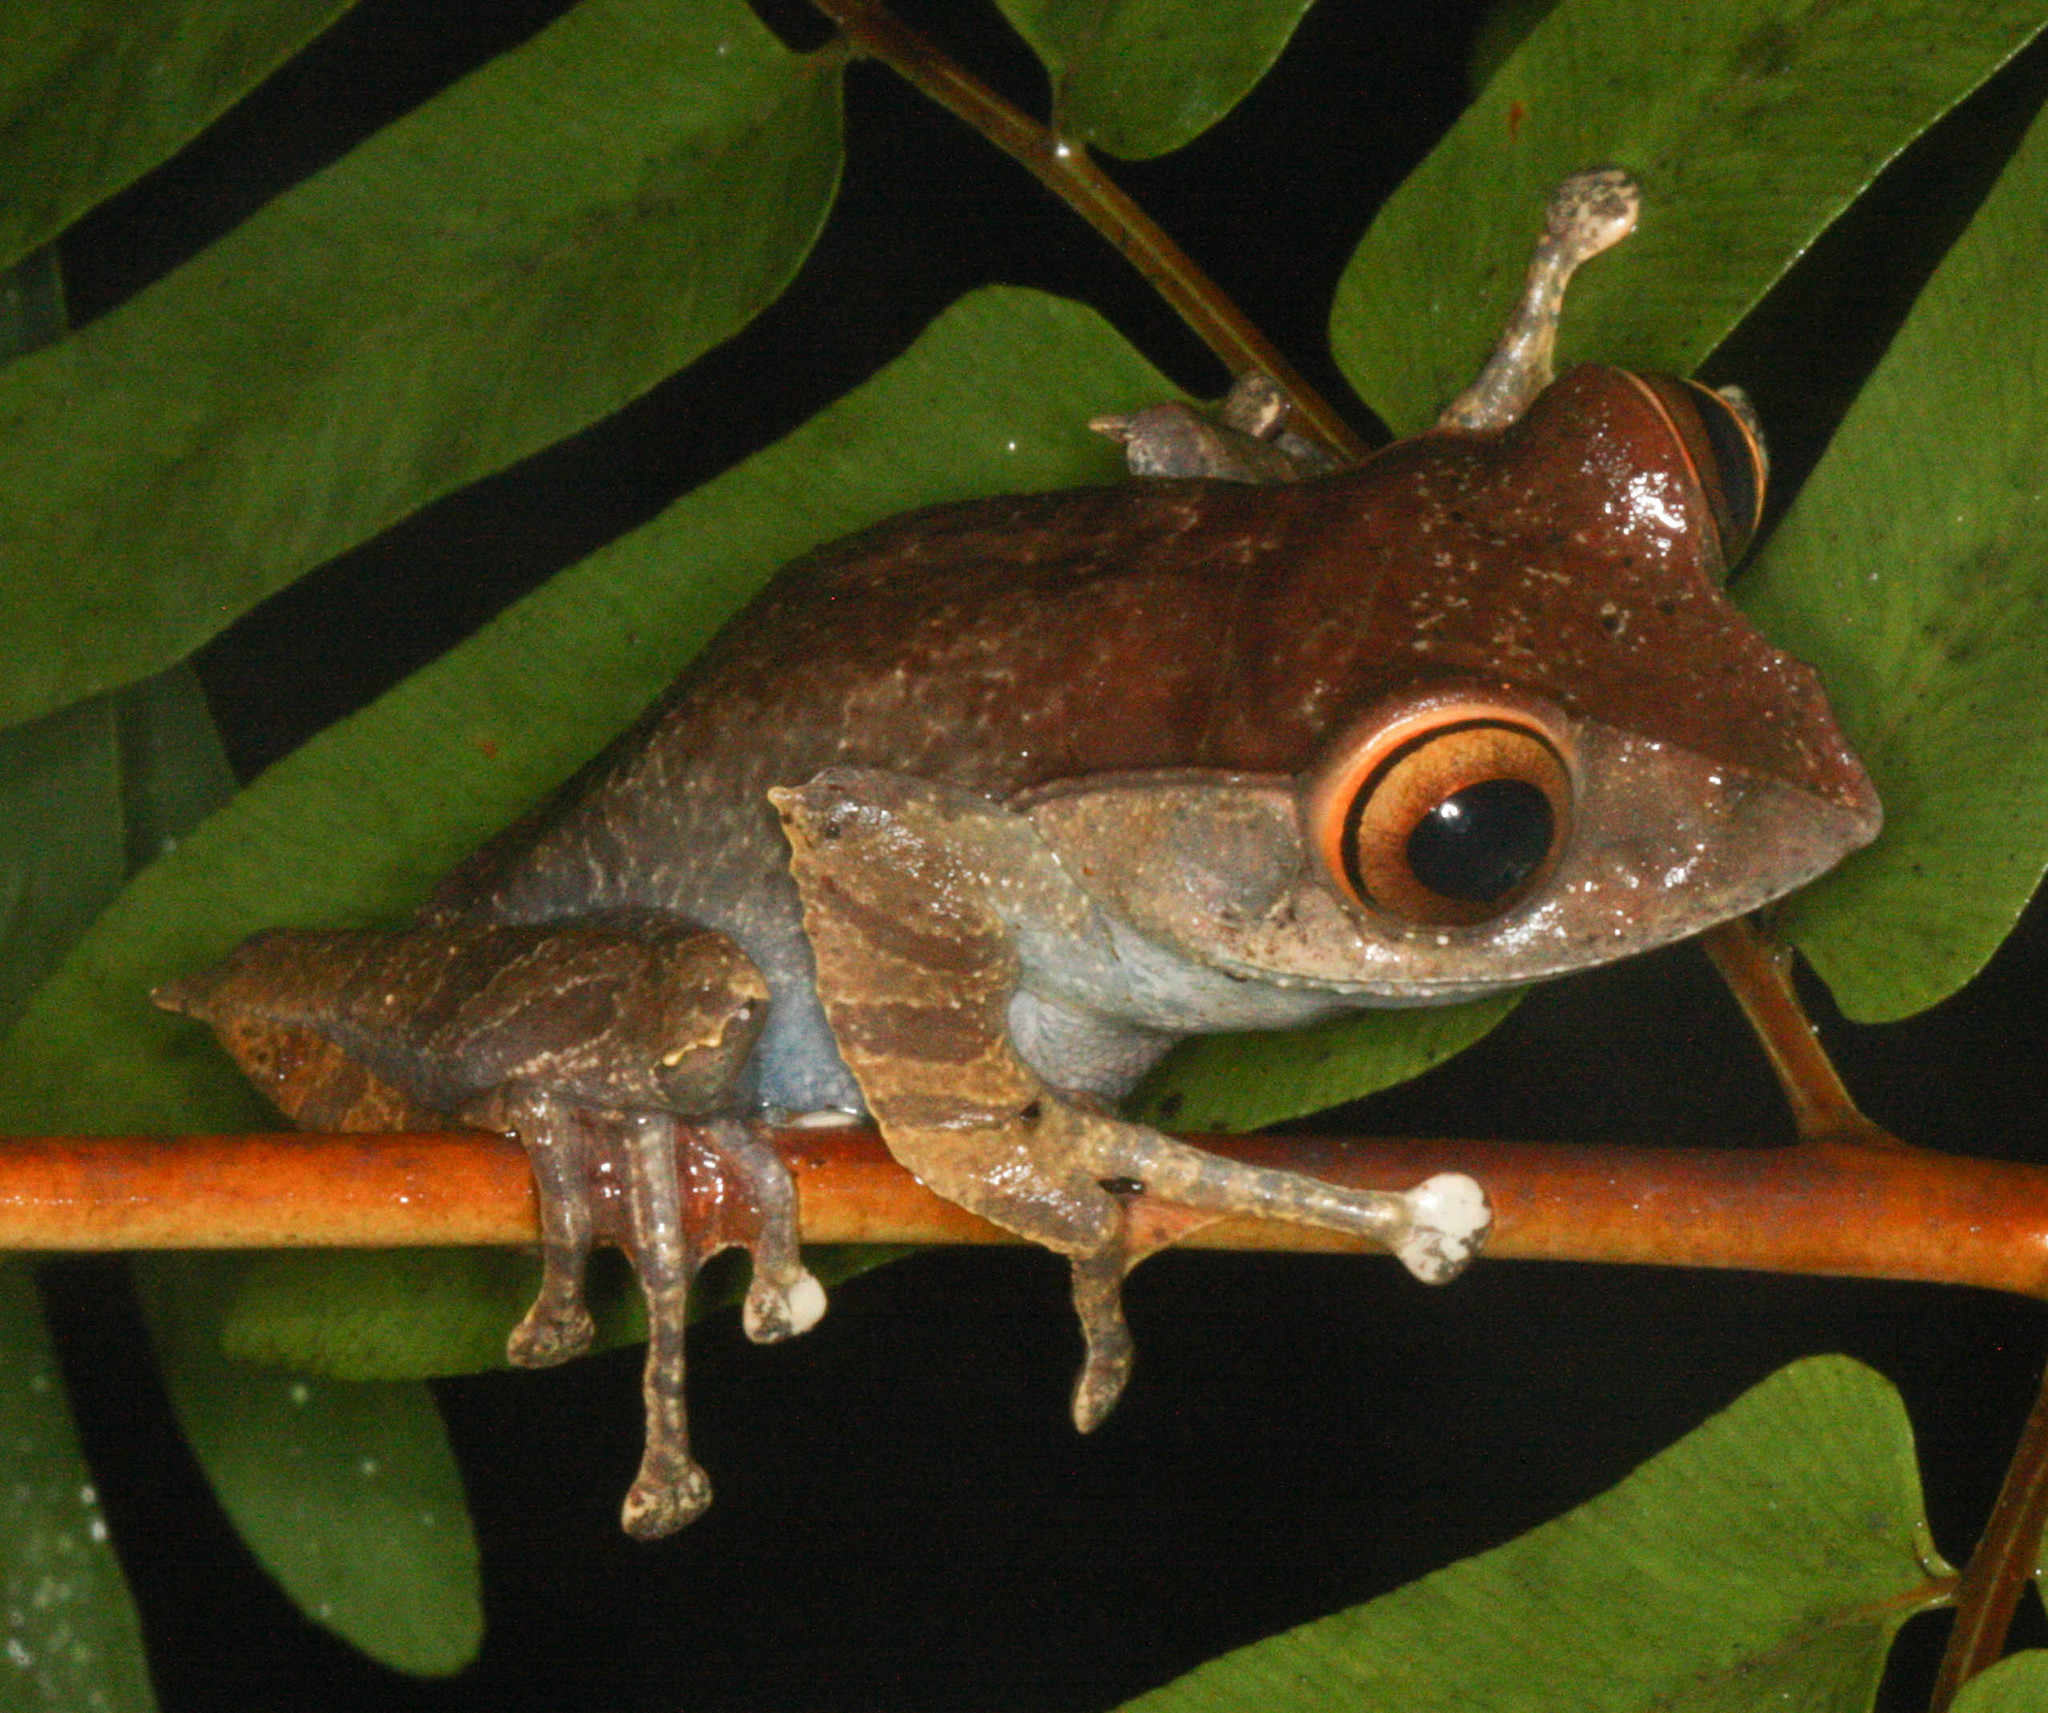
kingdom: Animalia
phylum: Chordata
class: Amphibia
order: Anura
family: Mantellidae
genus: Boophis
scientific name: Boophis madagascariensis
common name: Madagascar bright-eyed frog
